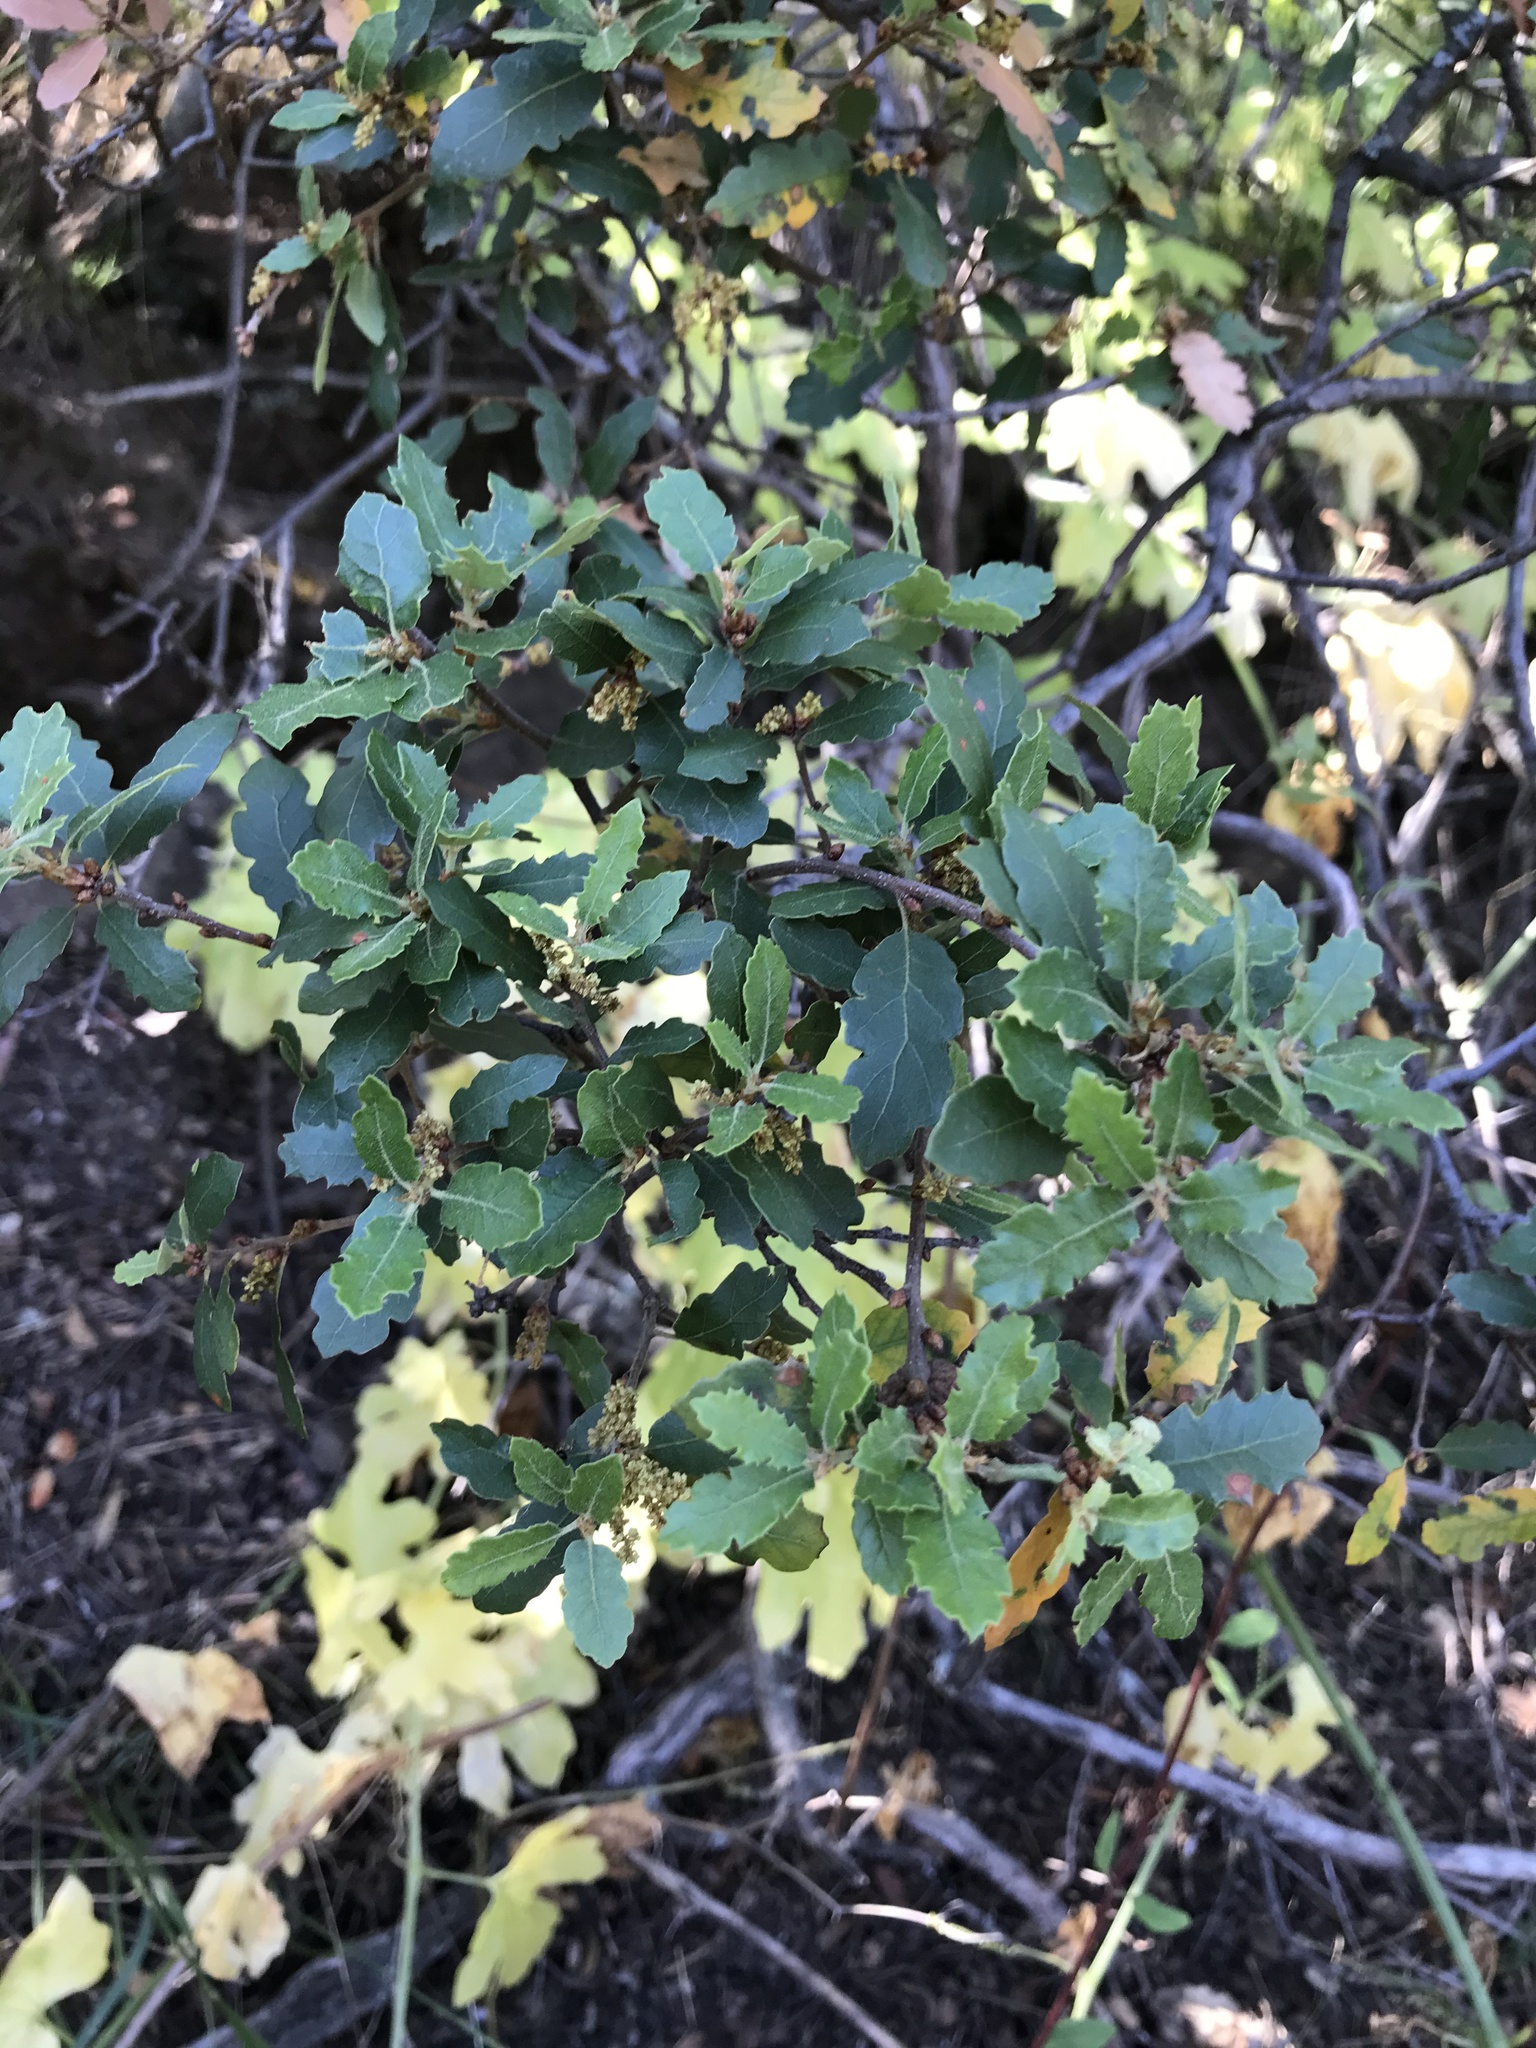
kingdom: Plantae
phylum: Tracheophyta
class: Magnoliopsida
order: Fagales
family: Fagaceae
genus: Quercus
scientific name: Quercus berberidifolia
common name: California scrub oak
